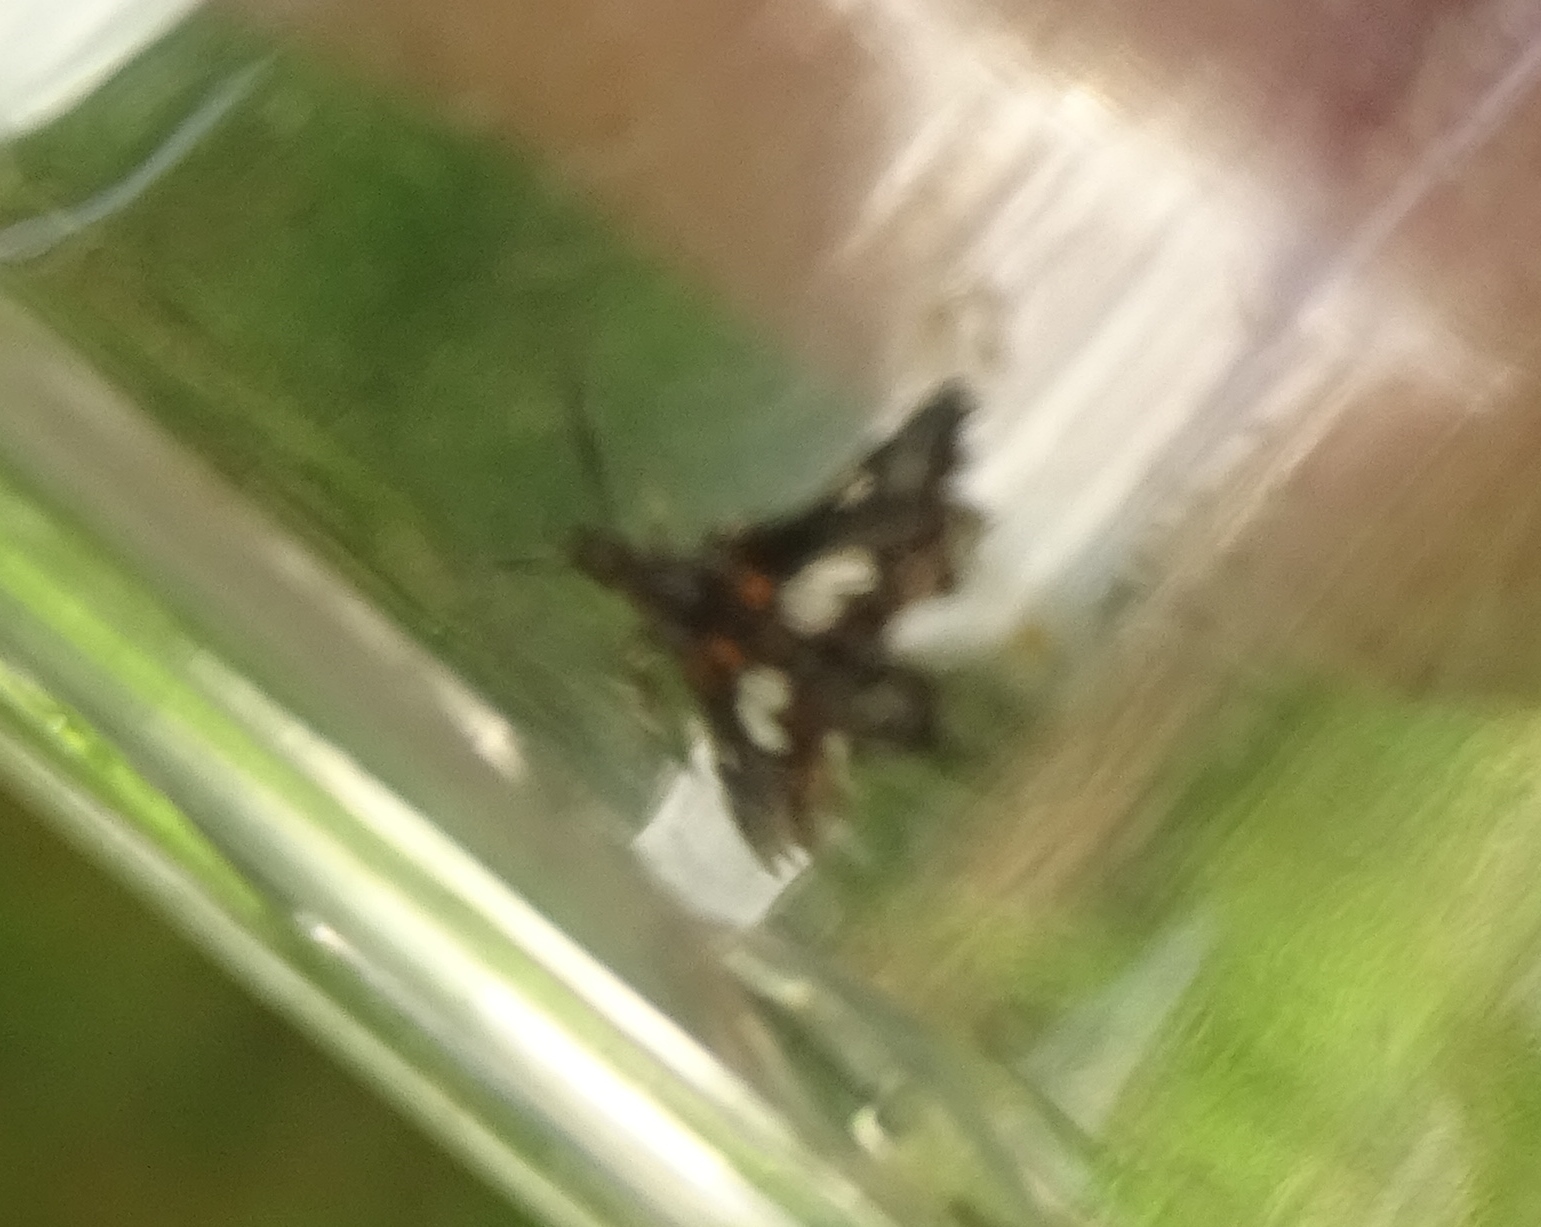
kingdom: Animalia
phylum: Arthropoda
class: Insecta
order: Lepidoptera
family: Thyrididae
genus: Thyris
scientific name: Thyris maculata
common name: Spotted thyris moth
